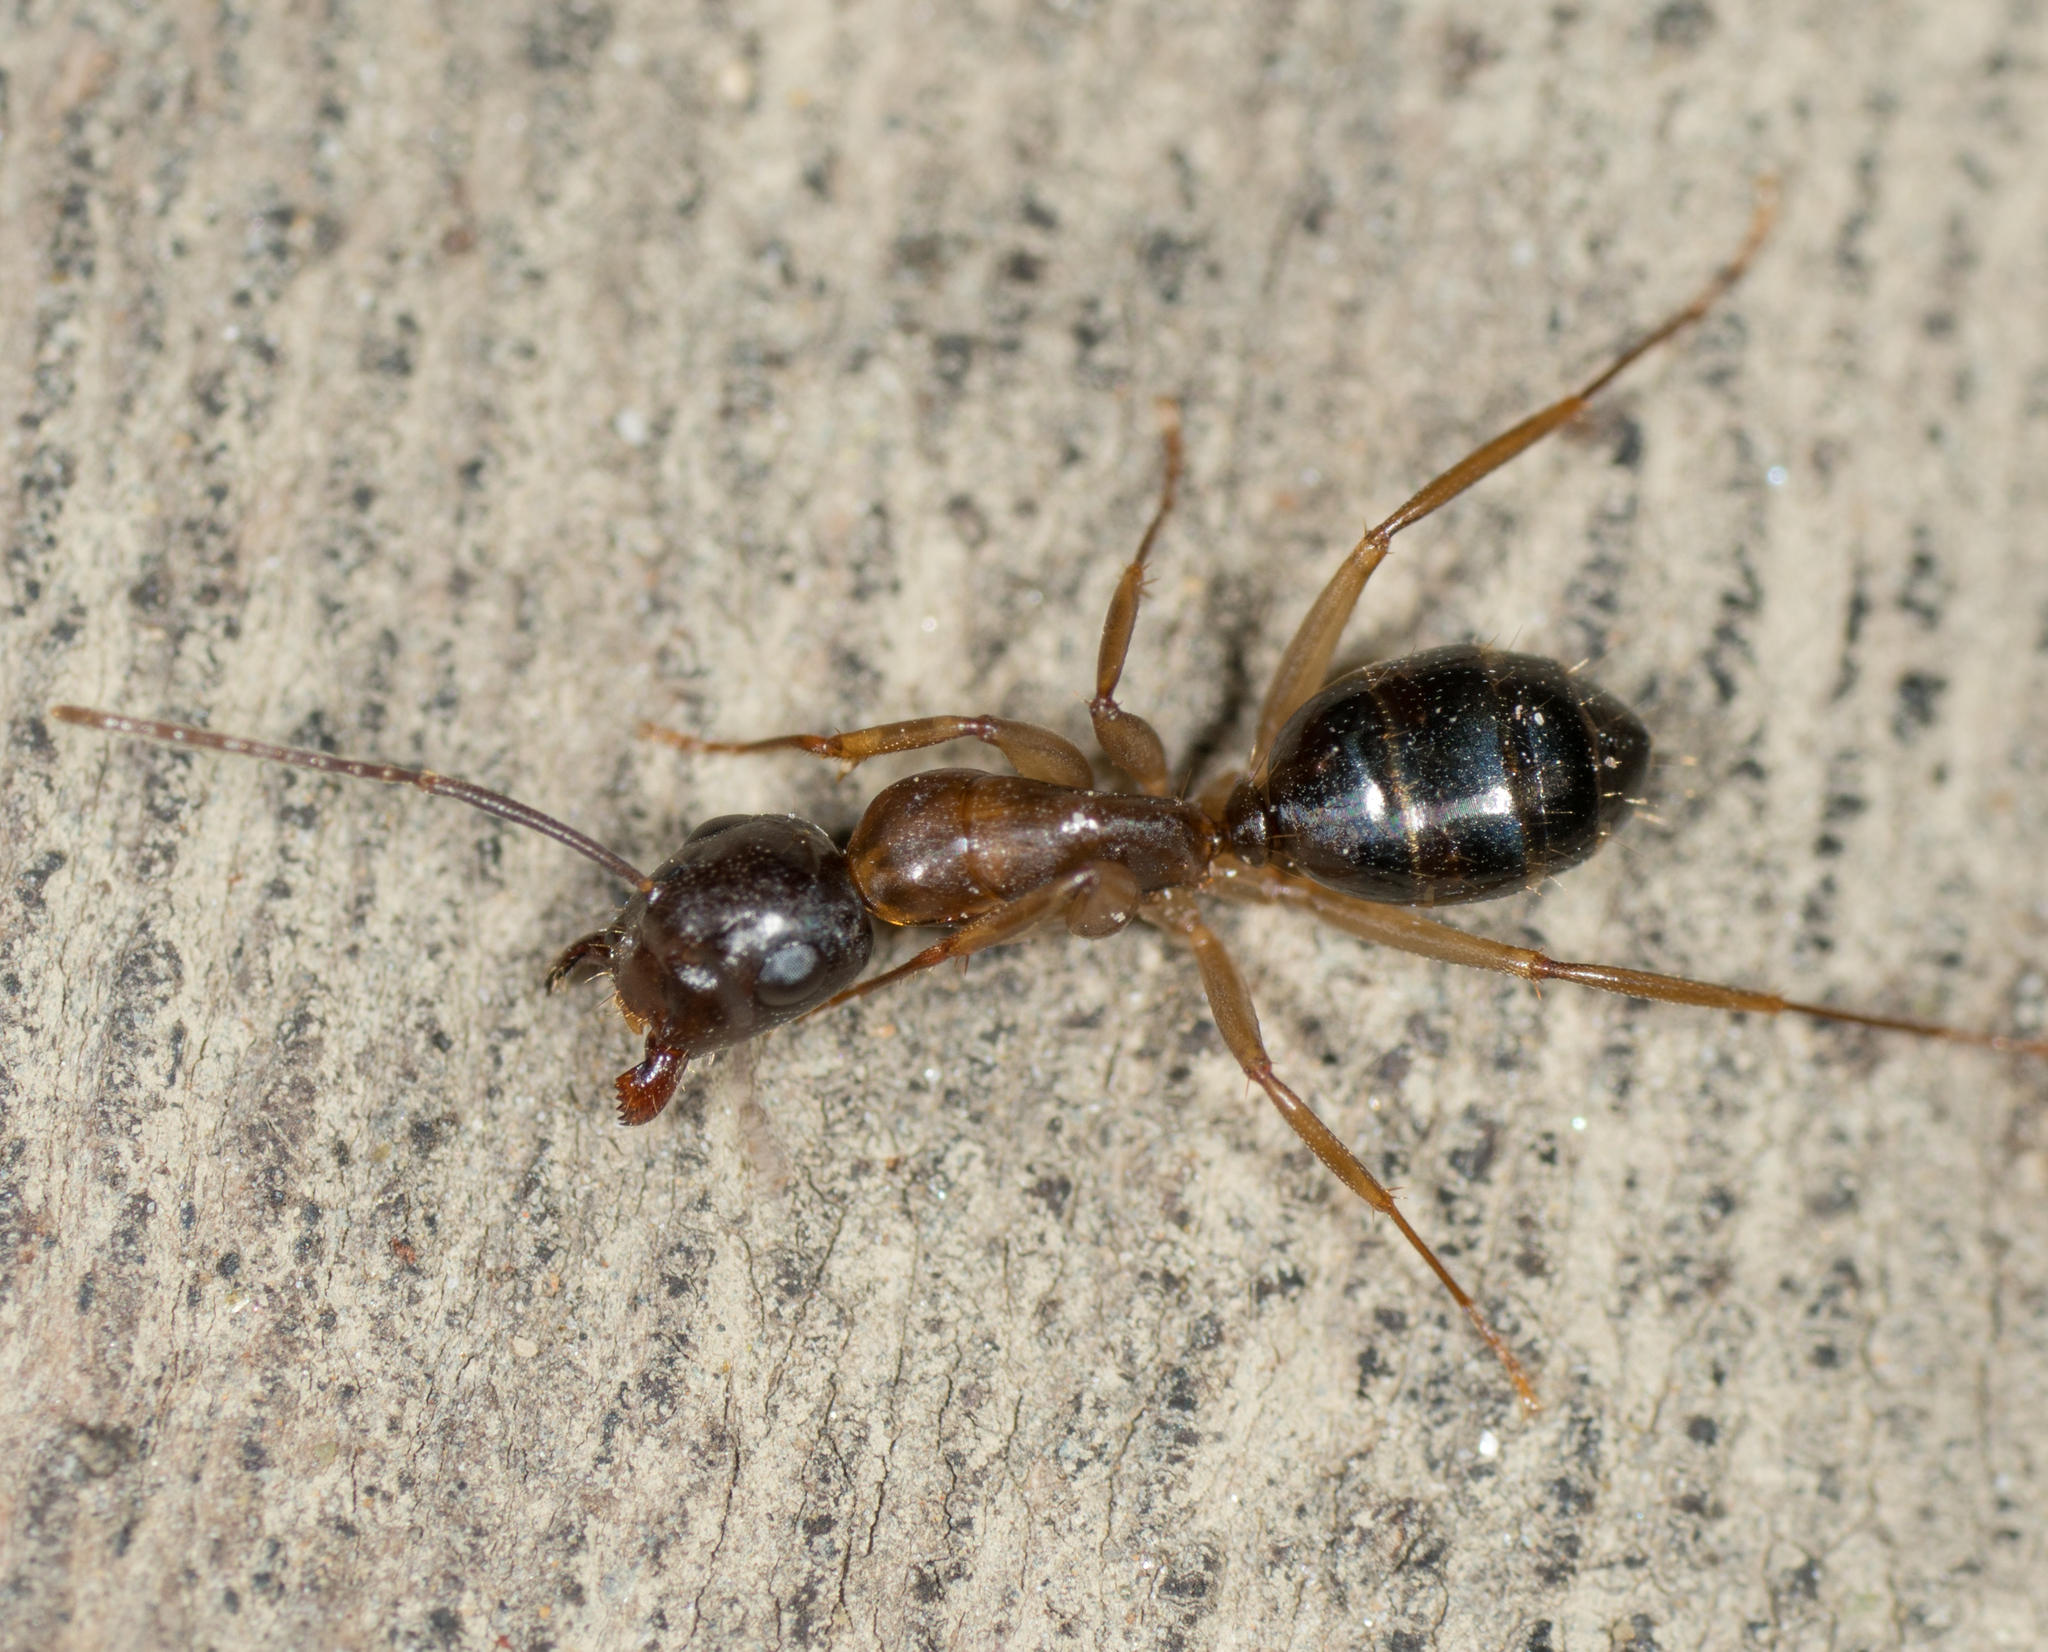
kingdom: Animalia
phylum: Arthropoda
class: Insecta
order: Hymenoptera
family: Formicidae
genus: Camponotus
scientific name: Camponotus clarithorax
